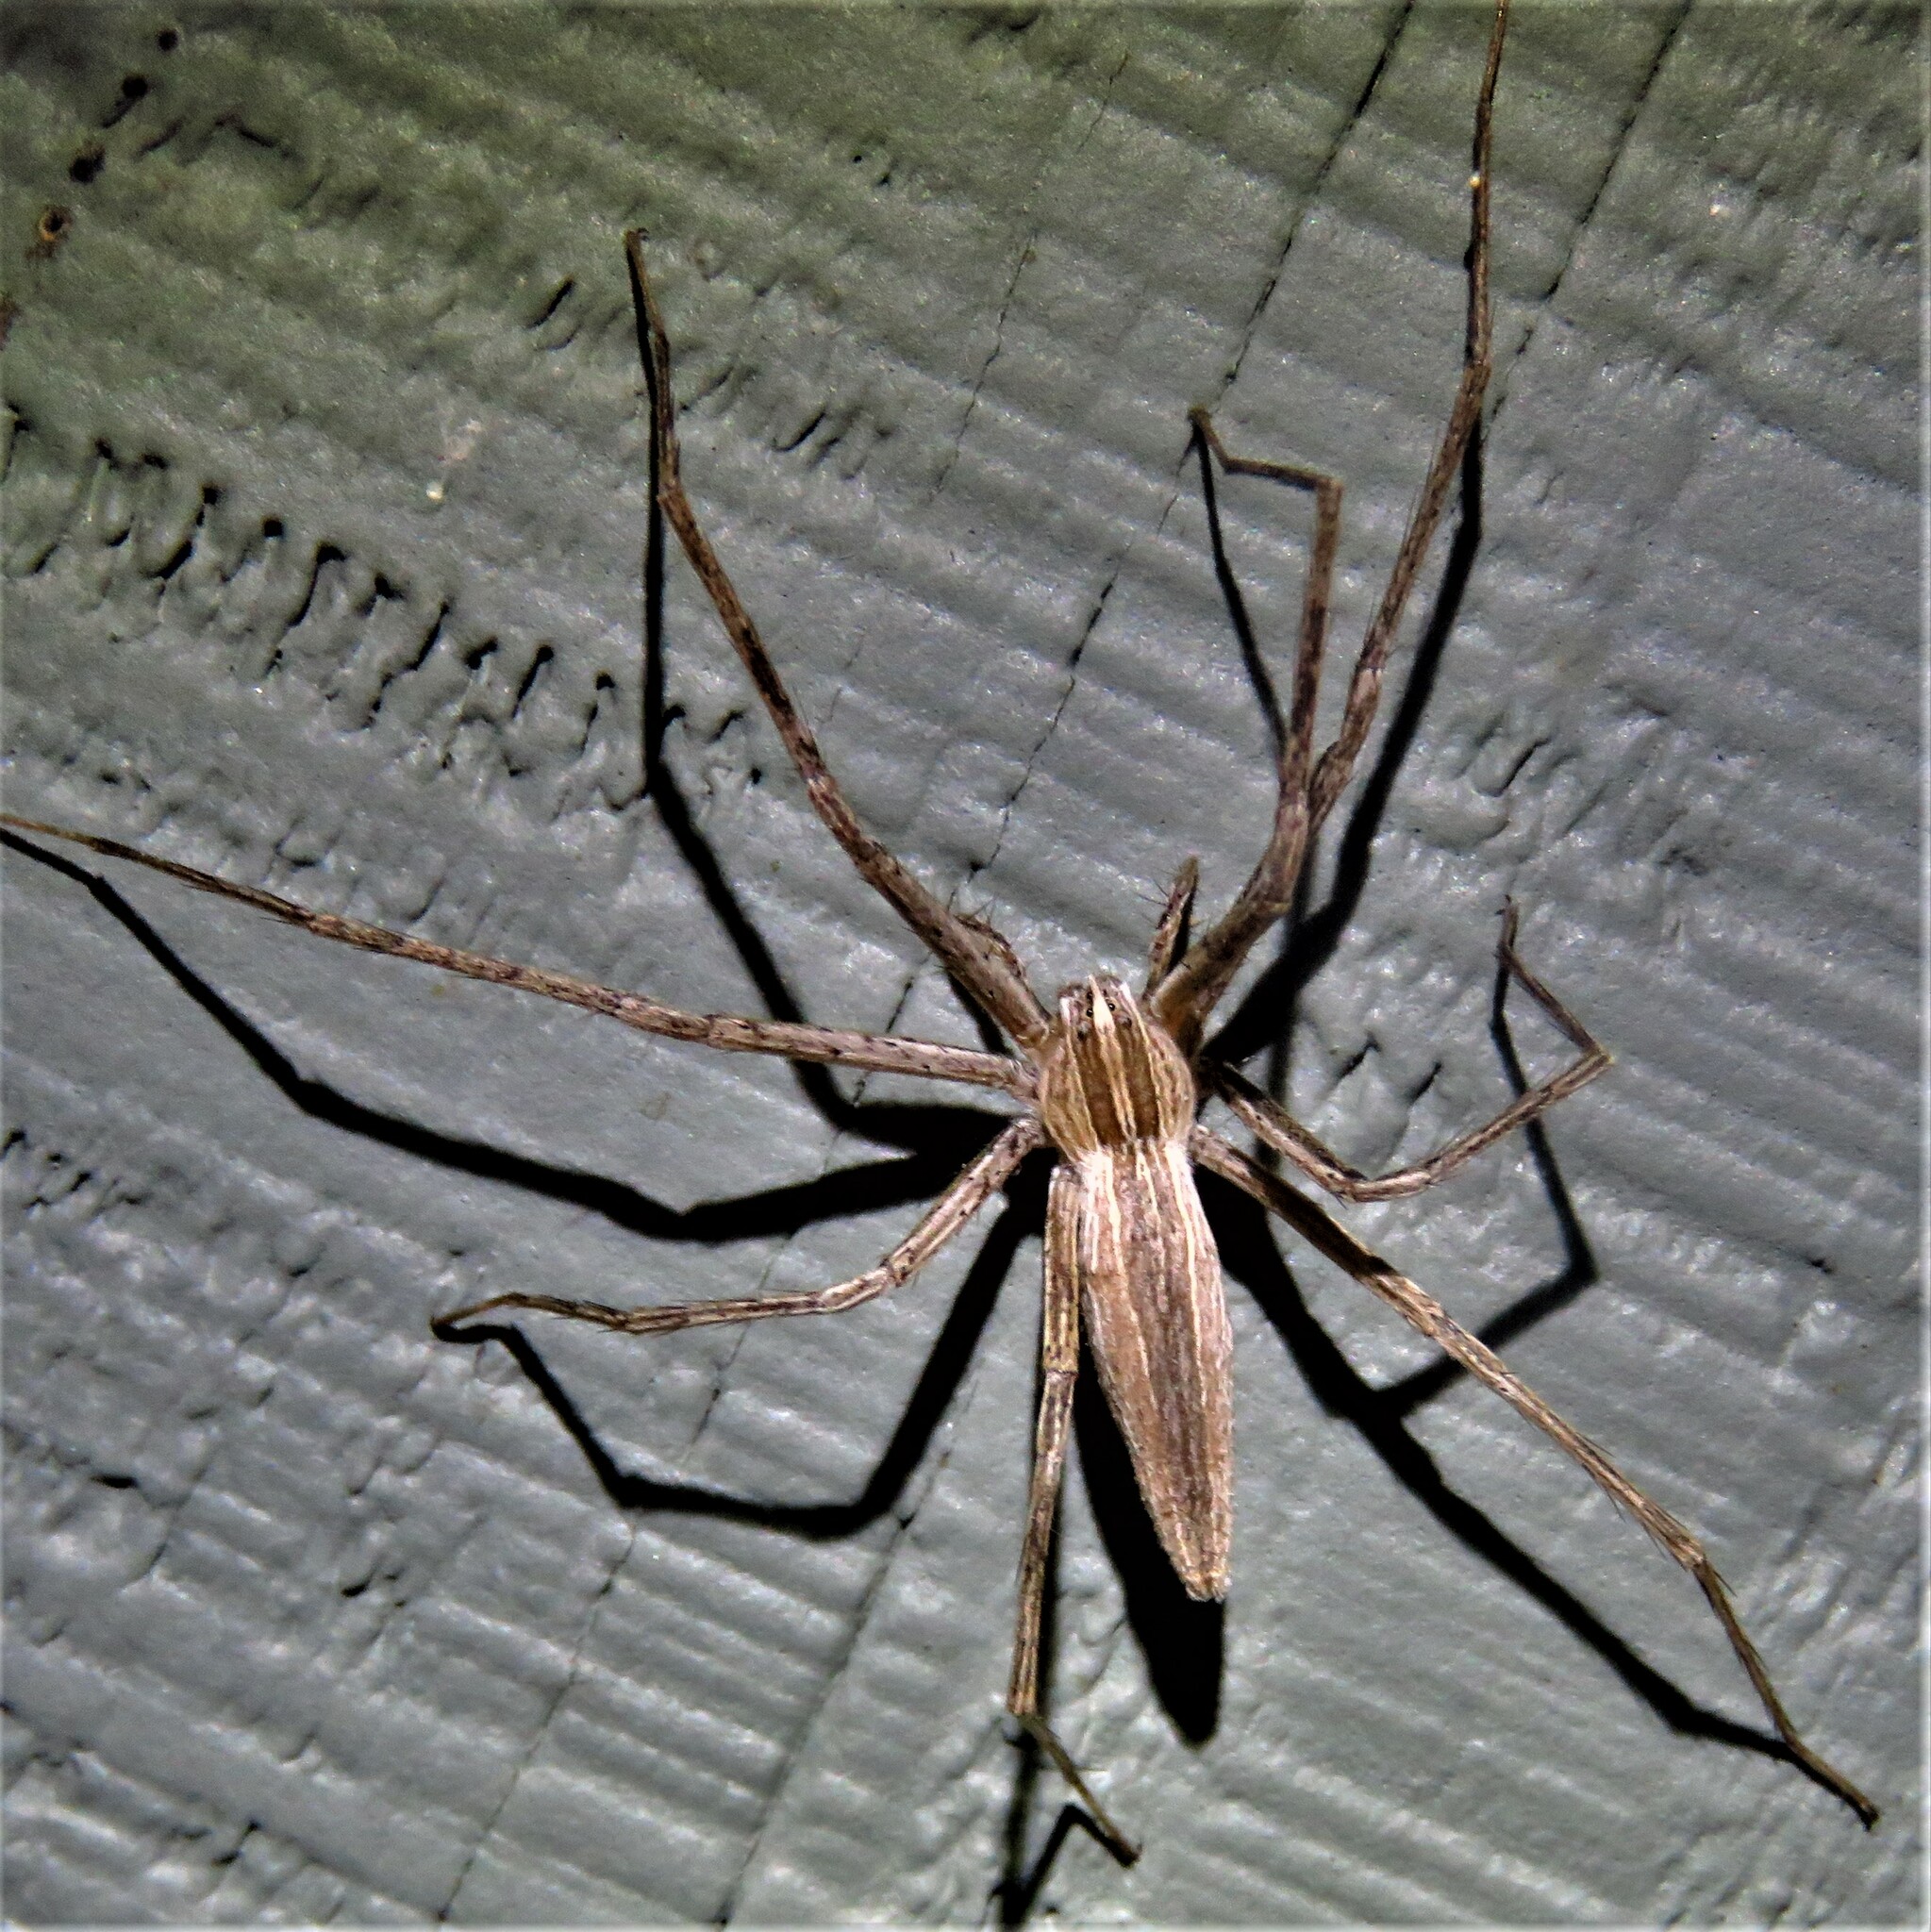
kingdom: Animalia
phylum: Arthropoda
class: Arachnida
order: Araneae
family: Pisauridae
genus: Pisaurina
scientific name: Pisaurina dubia
